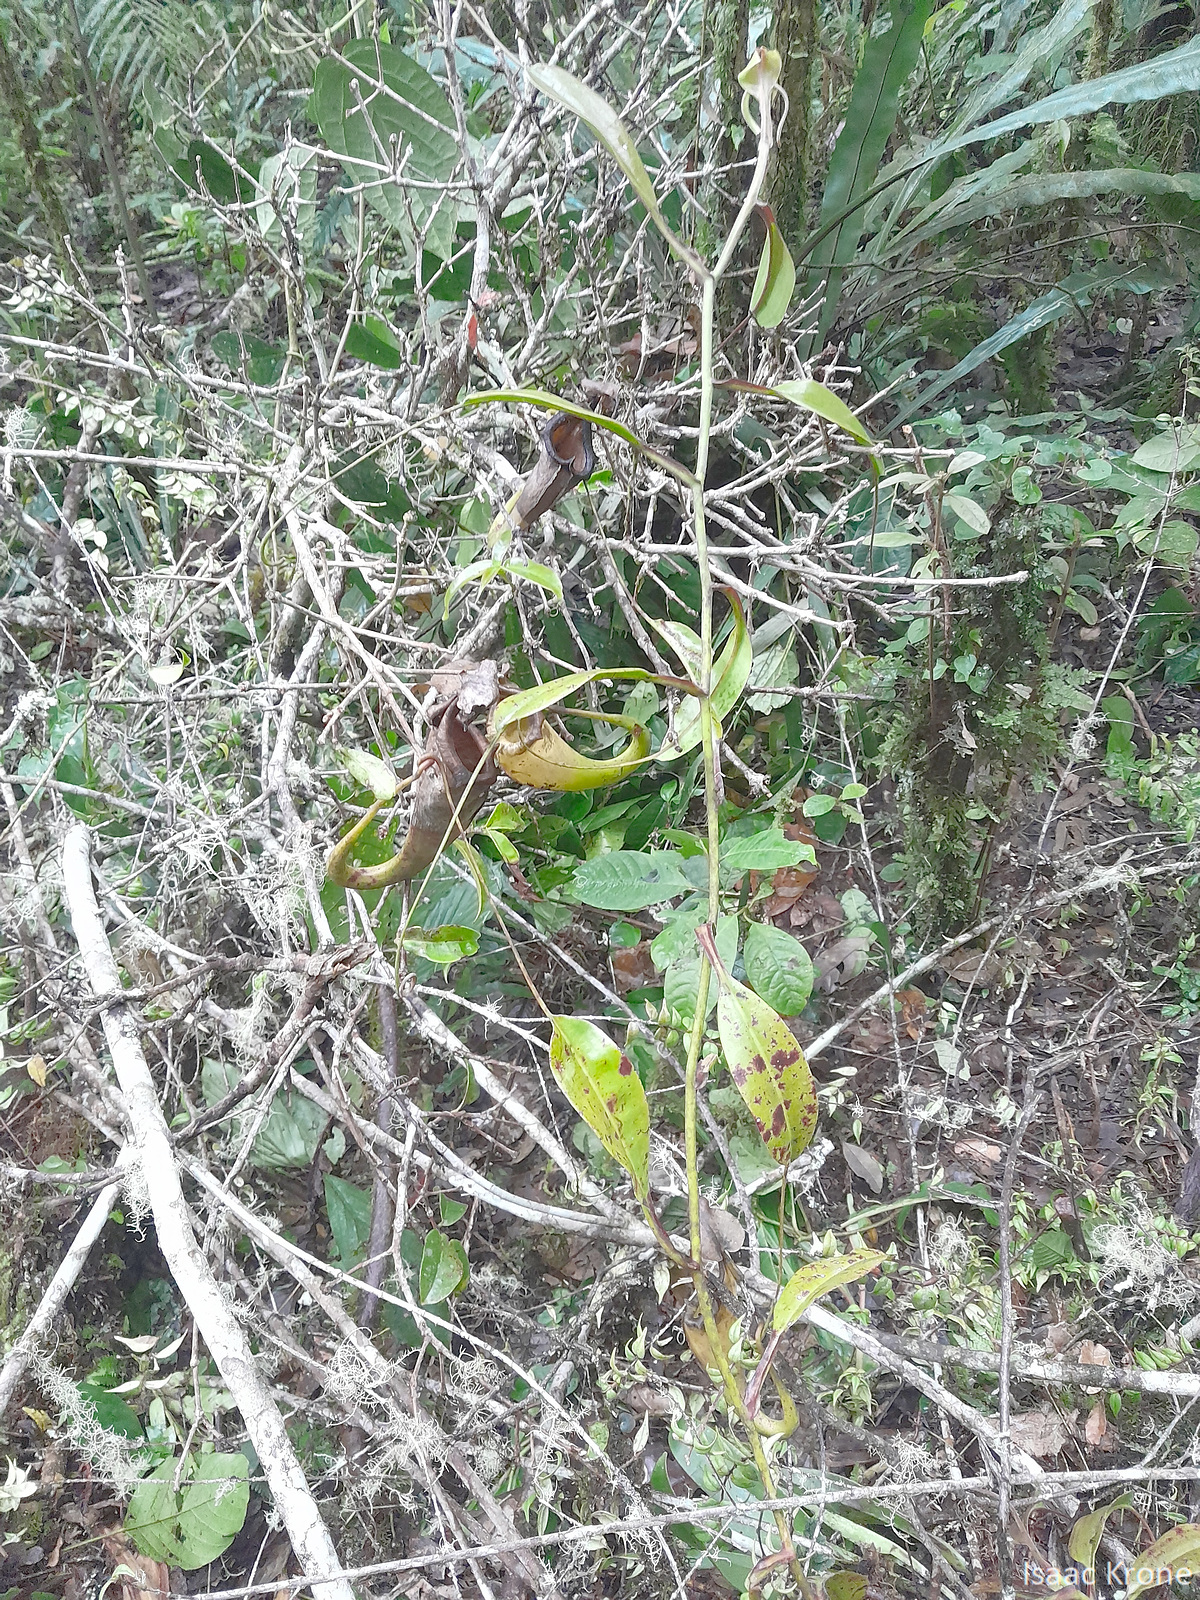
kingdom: Plantae
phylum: Tracheophyta
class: Magnoliopsida
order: Caryophyllales
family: Nepenthaceae
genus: Nepenthes
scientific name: Nepenthes maxima
